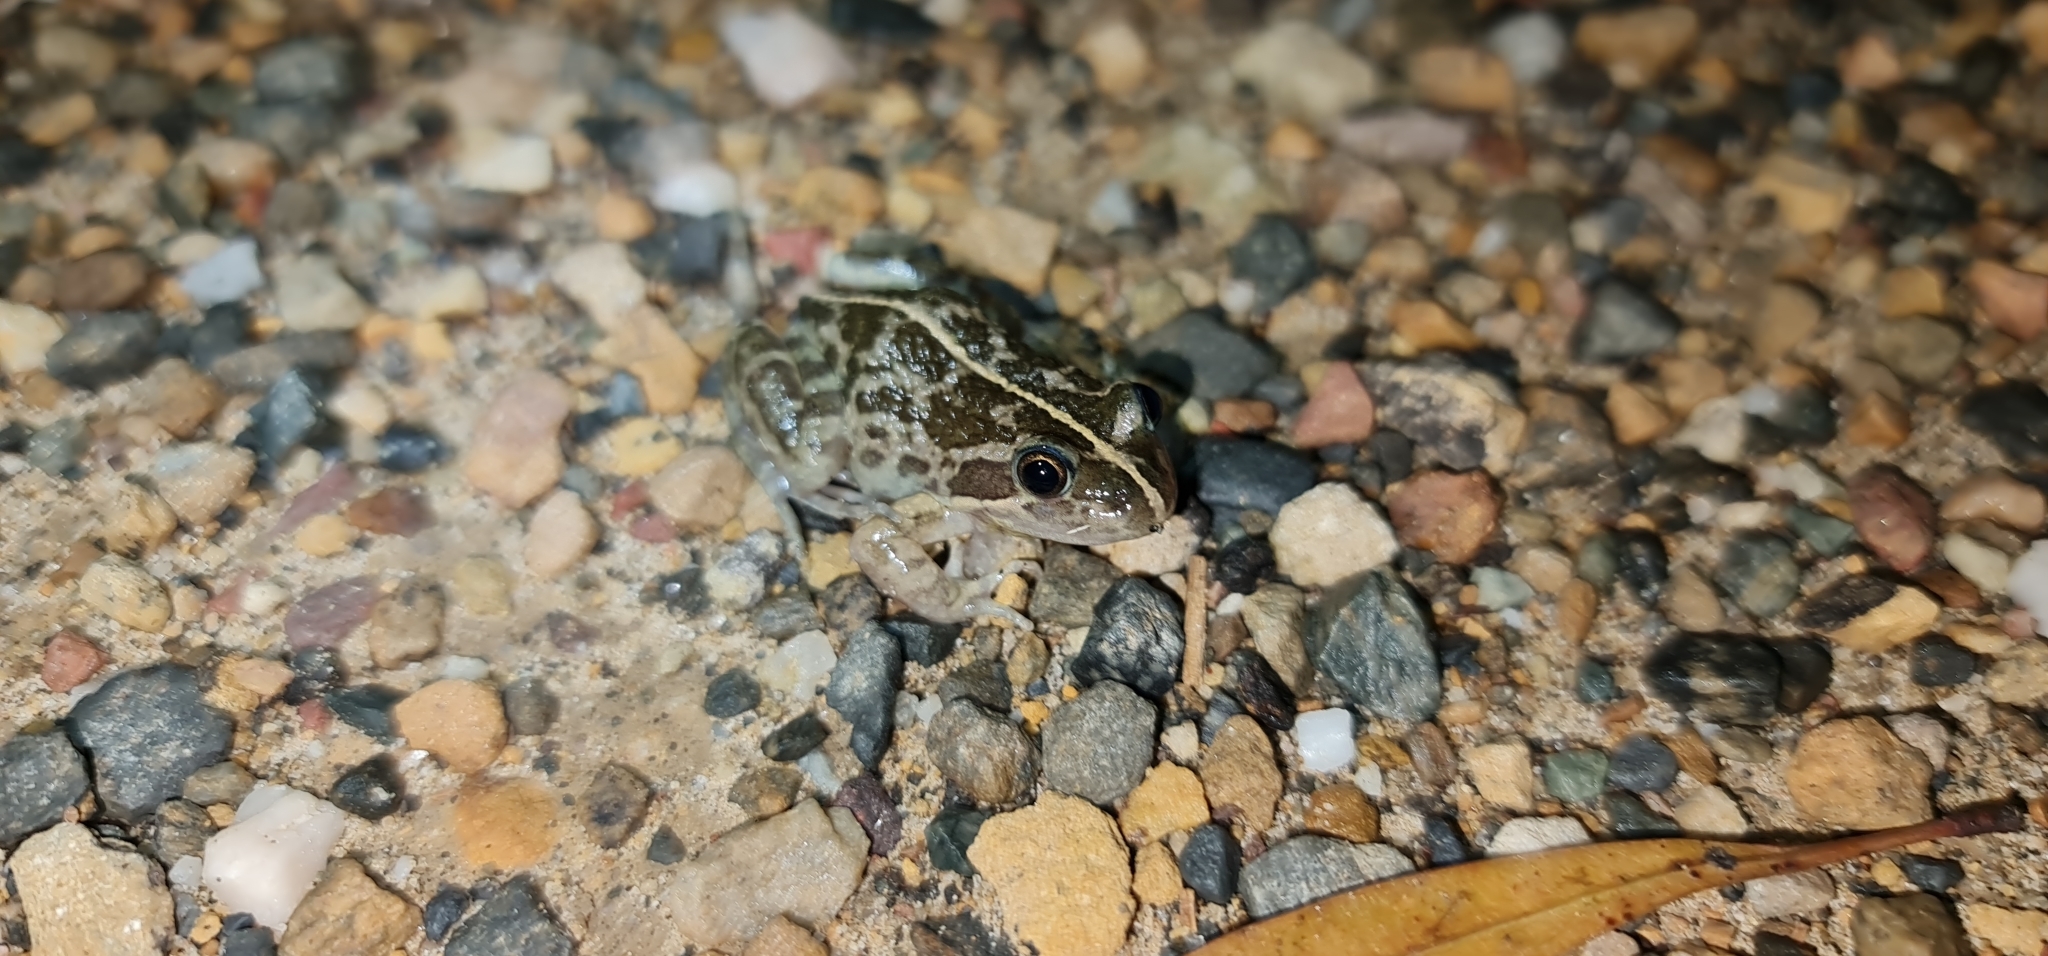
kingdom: Animalia
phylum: Chordata
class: Amphibia
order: Anura
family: Limnodynastidae
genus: Limnodynastes
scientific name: Limnodynastes tasmaniensis
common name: Spotted marsh frog
